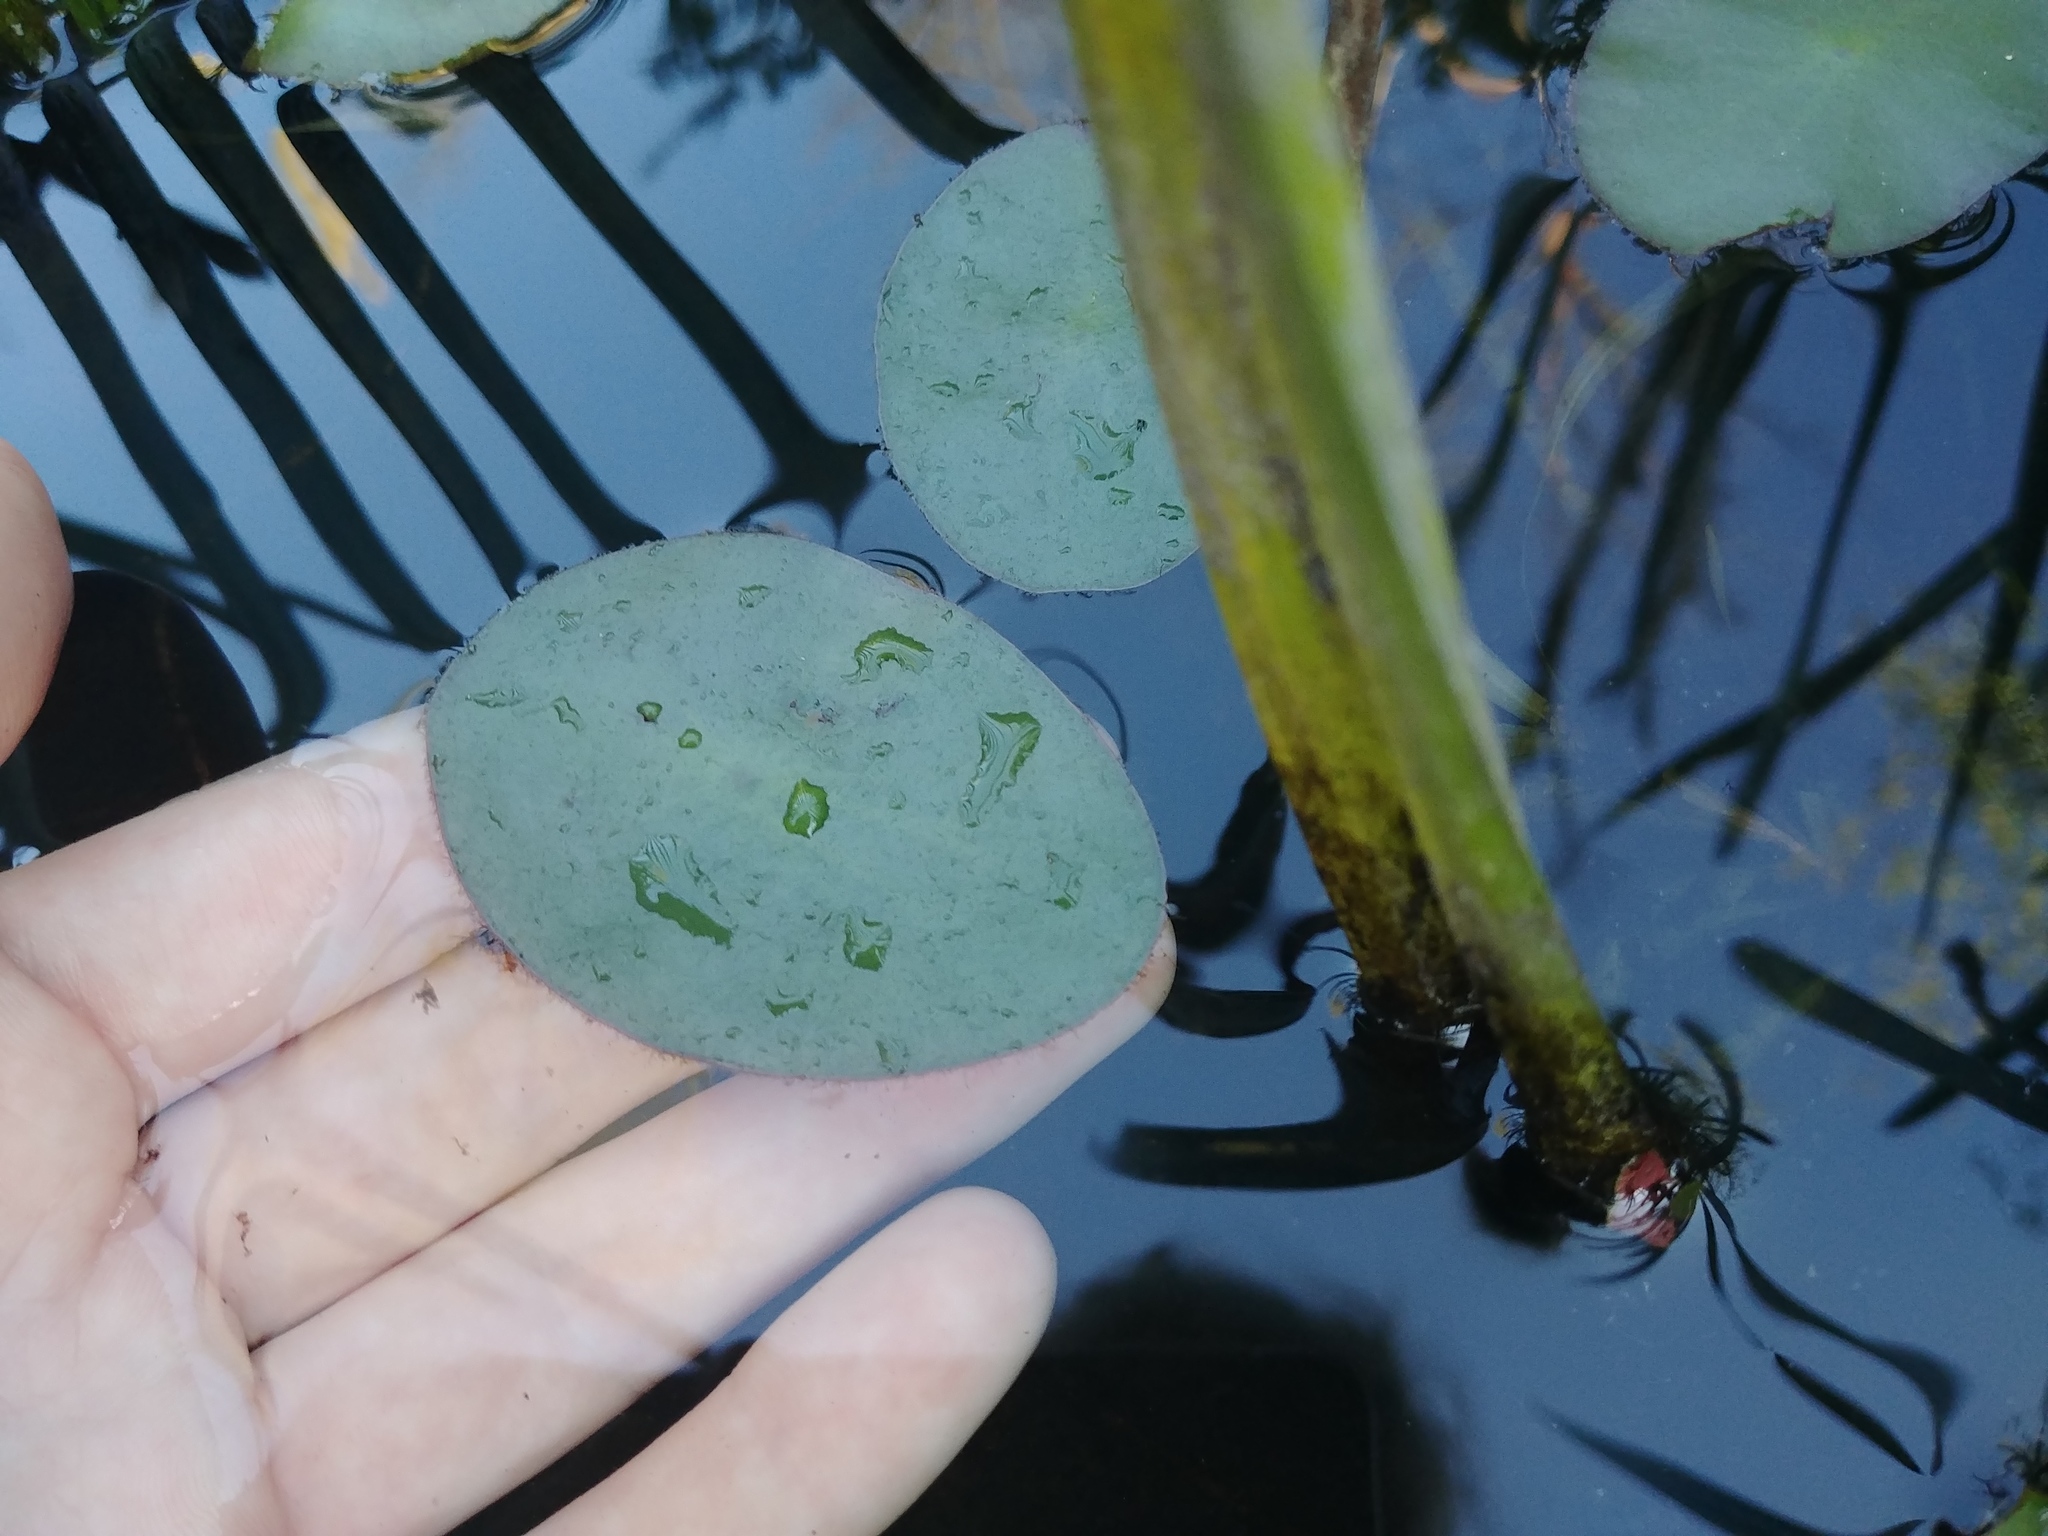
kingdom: Plantae
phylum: Tracheophyta
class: Magnoliopsida
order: Nymphaeales
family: Cabombaceae
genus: Brasenia
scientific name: Brasenia schreberi
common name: Water-shield
